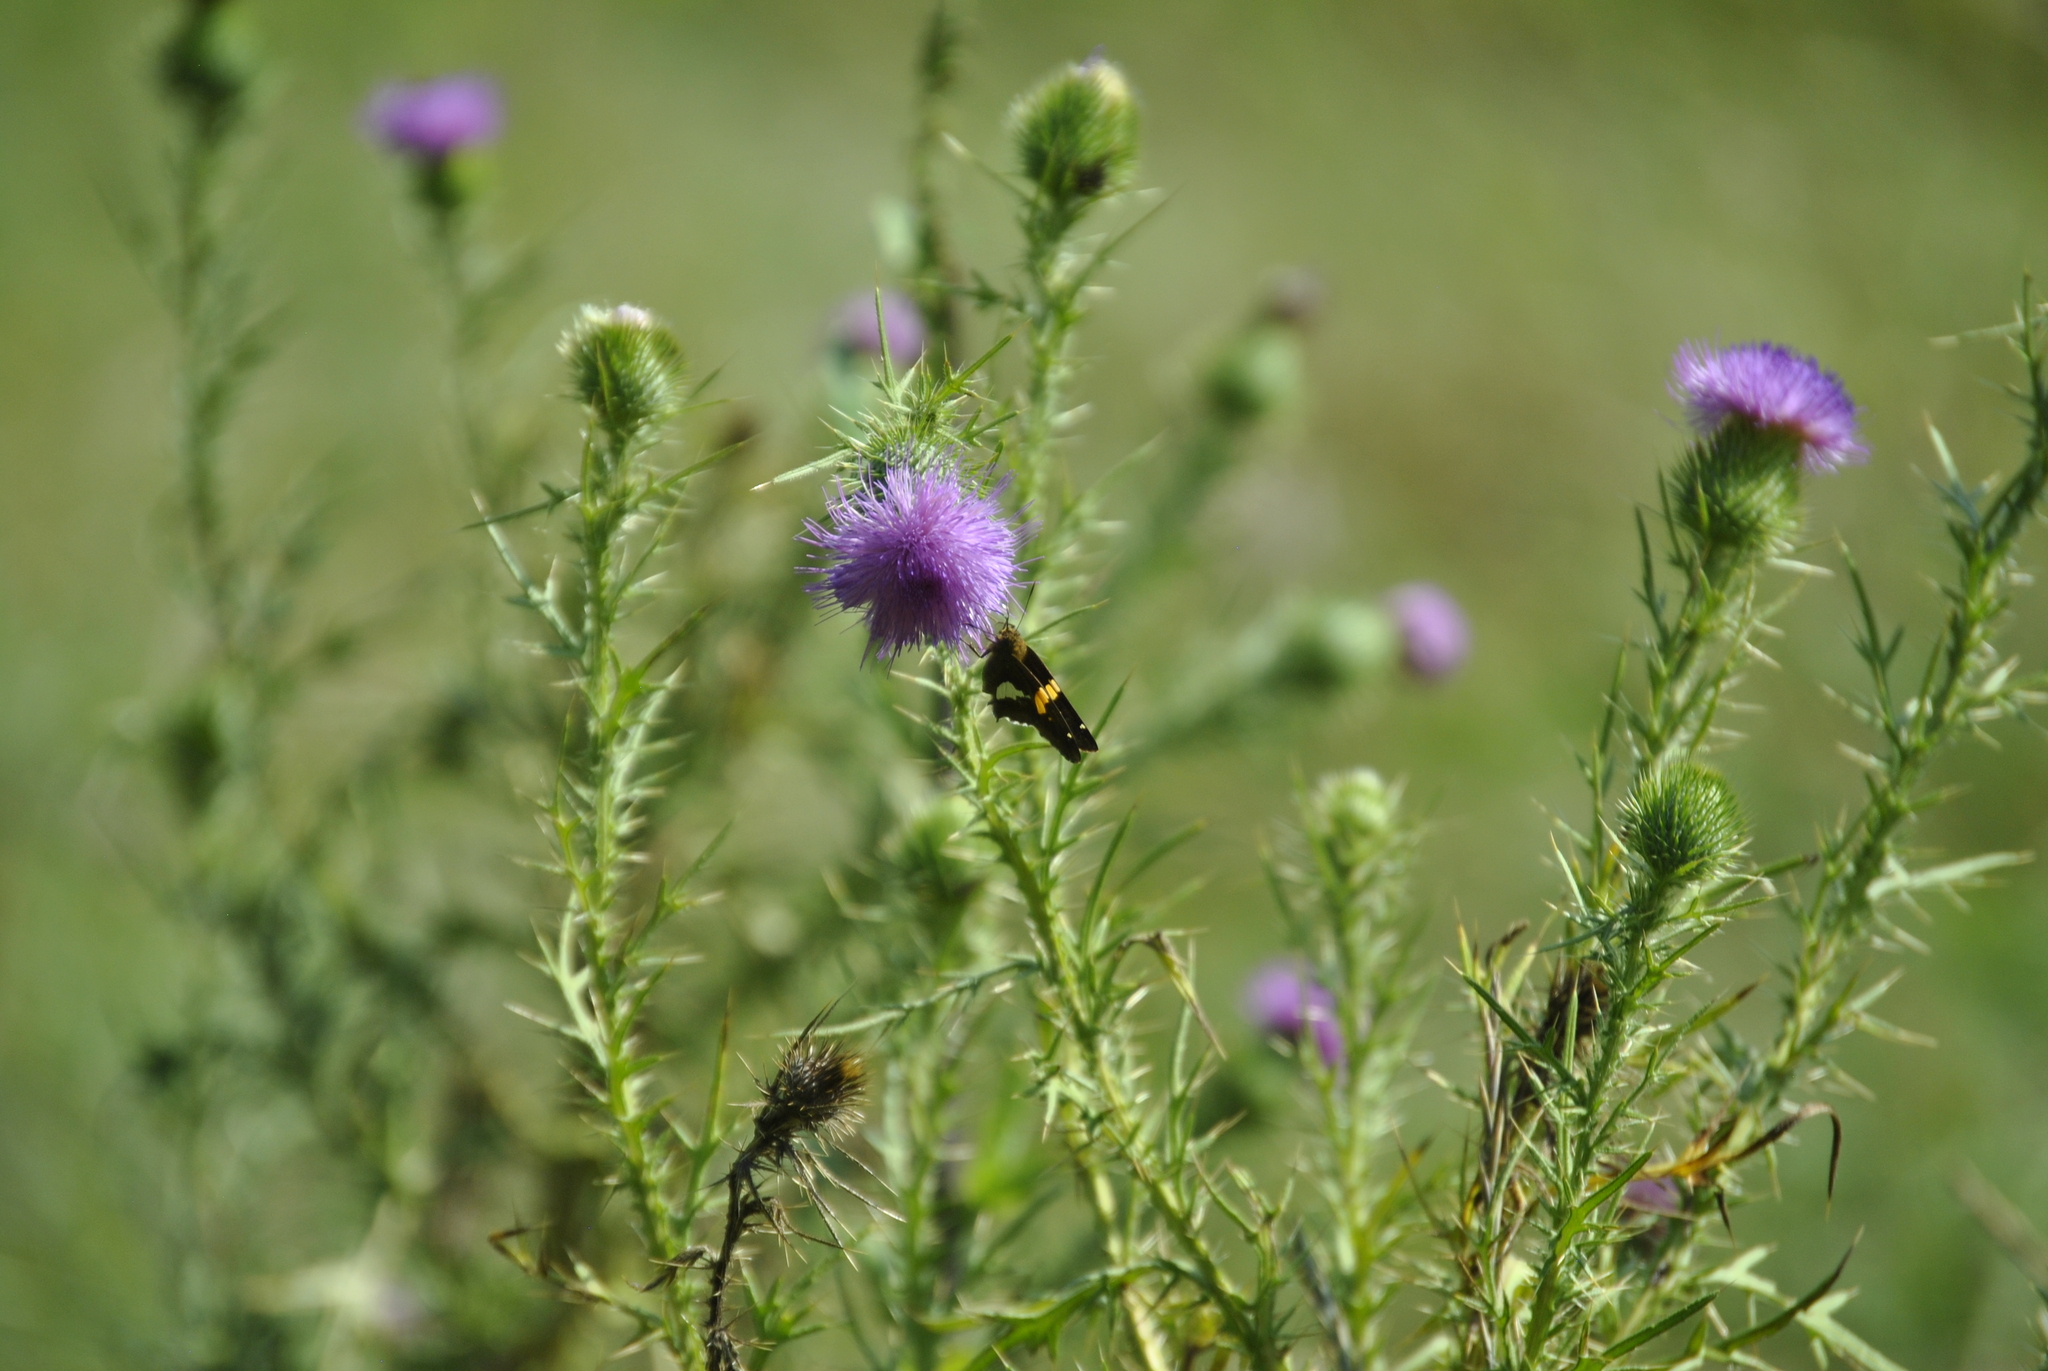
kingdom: Animalia
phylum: Arthropoda
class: Insecta
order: Lepidoptera
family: Hesperiidae
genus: Epargyreus
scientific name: Epargyreus clarus
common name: Silver-spotted skipper
